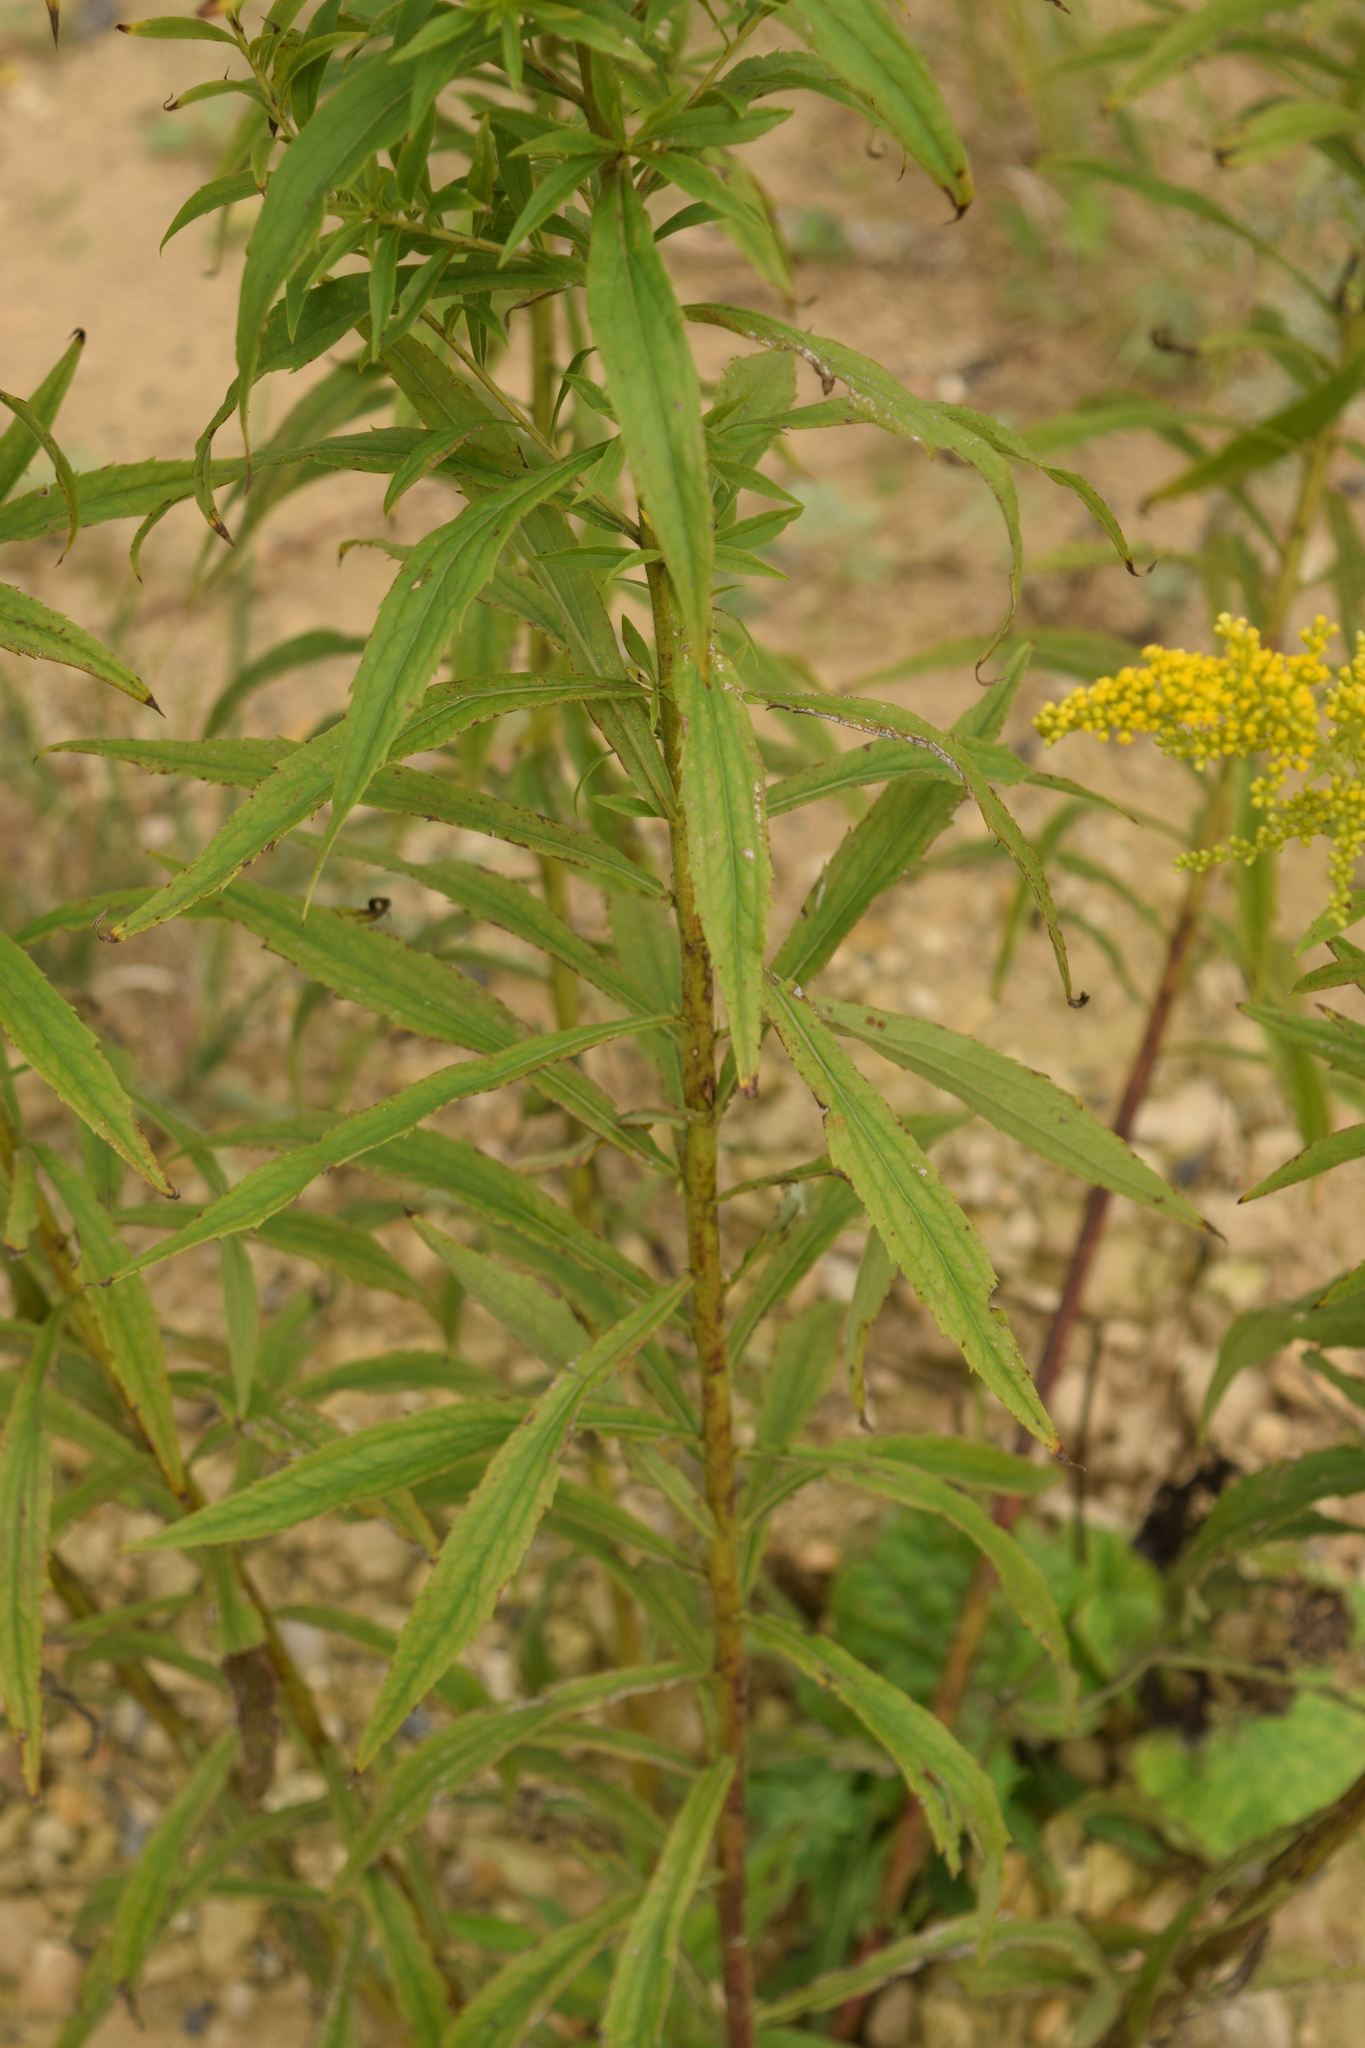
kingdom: Plantae
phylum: Tracheophyta
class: Magnoliopsida
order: Asterales
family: Asteraceae
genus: Solidago
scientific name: Solidago canadensis
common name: Canada goldenrod
